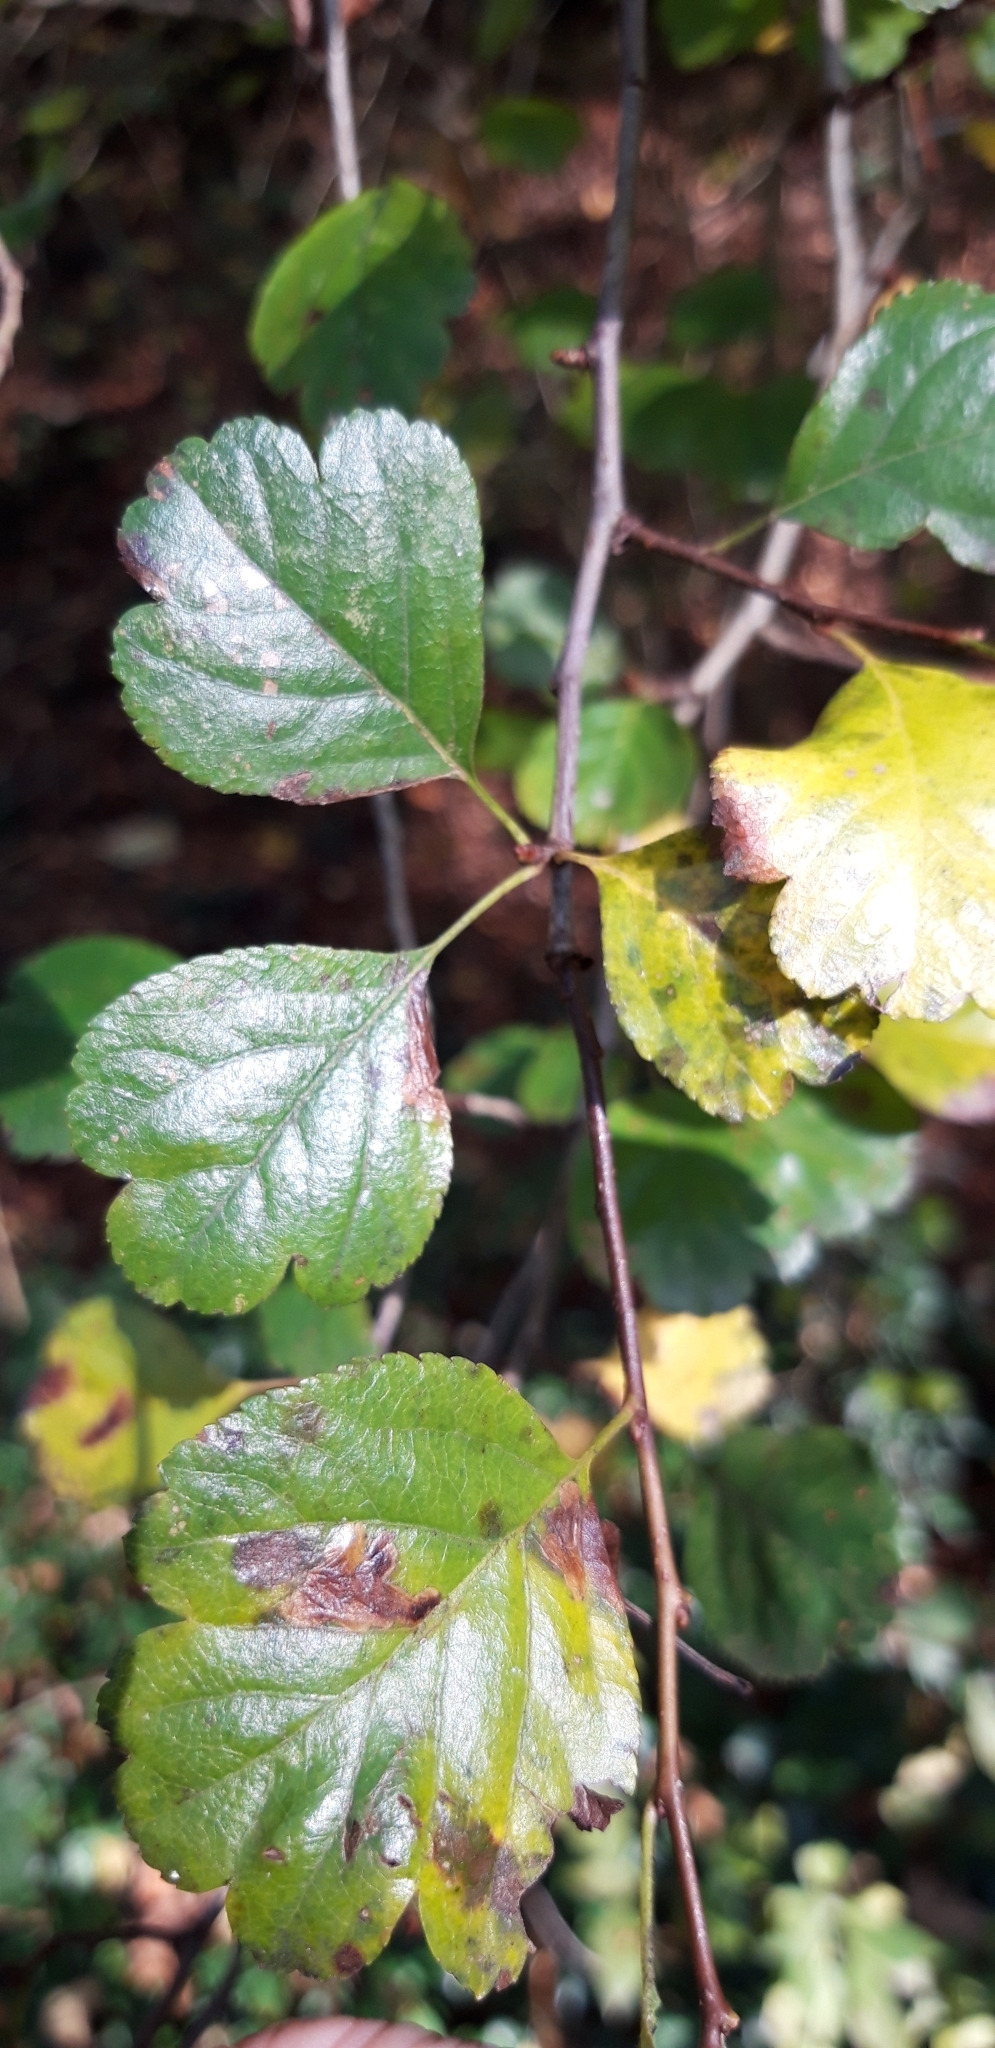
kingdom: Plantae
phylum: Tracheophyta
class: Magnoliopsida
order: Rosales
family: Rosaceae
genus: Crataegus
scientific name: Crataegus laevigata
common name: Midland hawthorn
